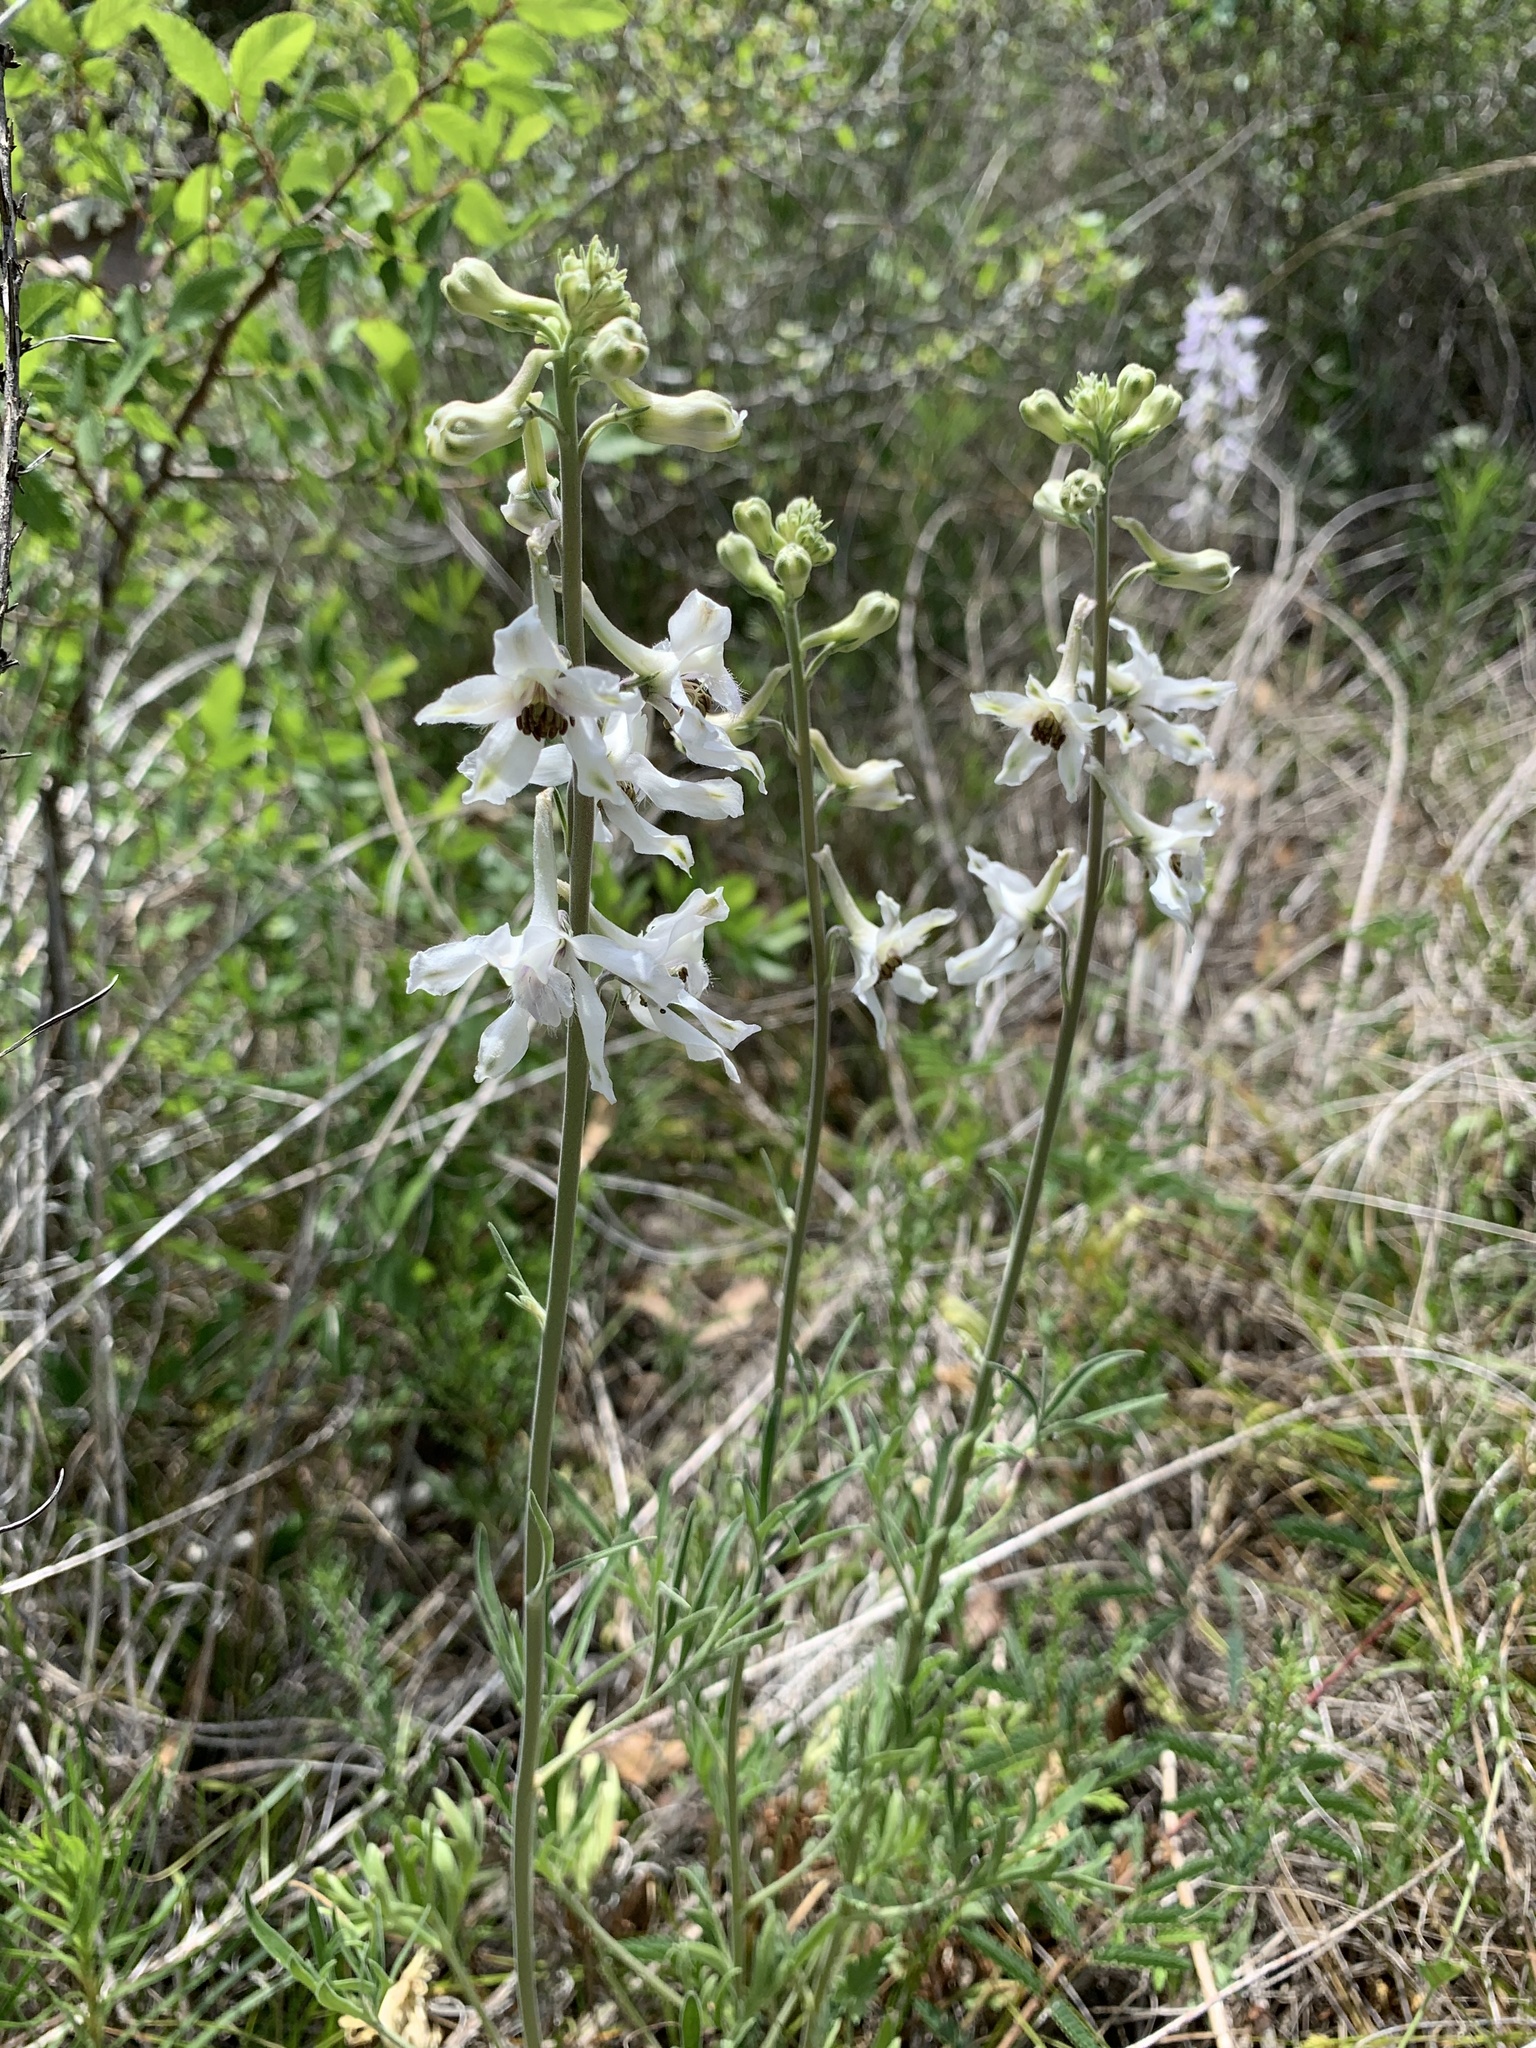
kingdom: Plantae
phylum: Tracheophyta
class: Magnoliopsida
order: Ranunculales
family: Ranunculaceae
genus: Delphinium
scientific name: Delphinium carolinianum
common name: Carolina larkspur
